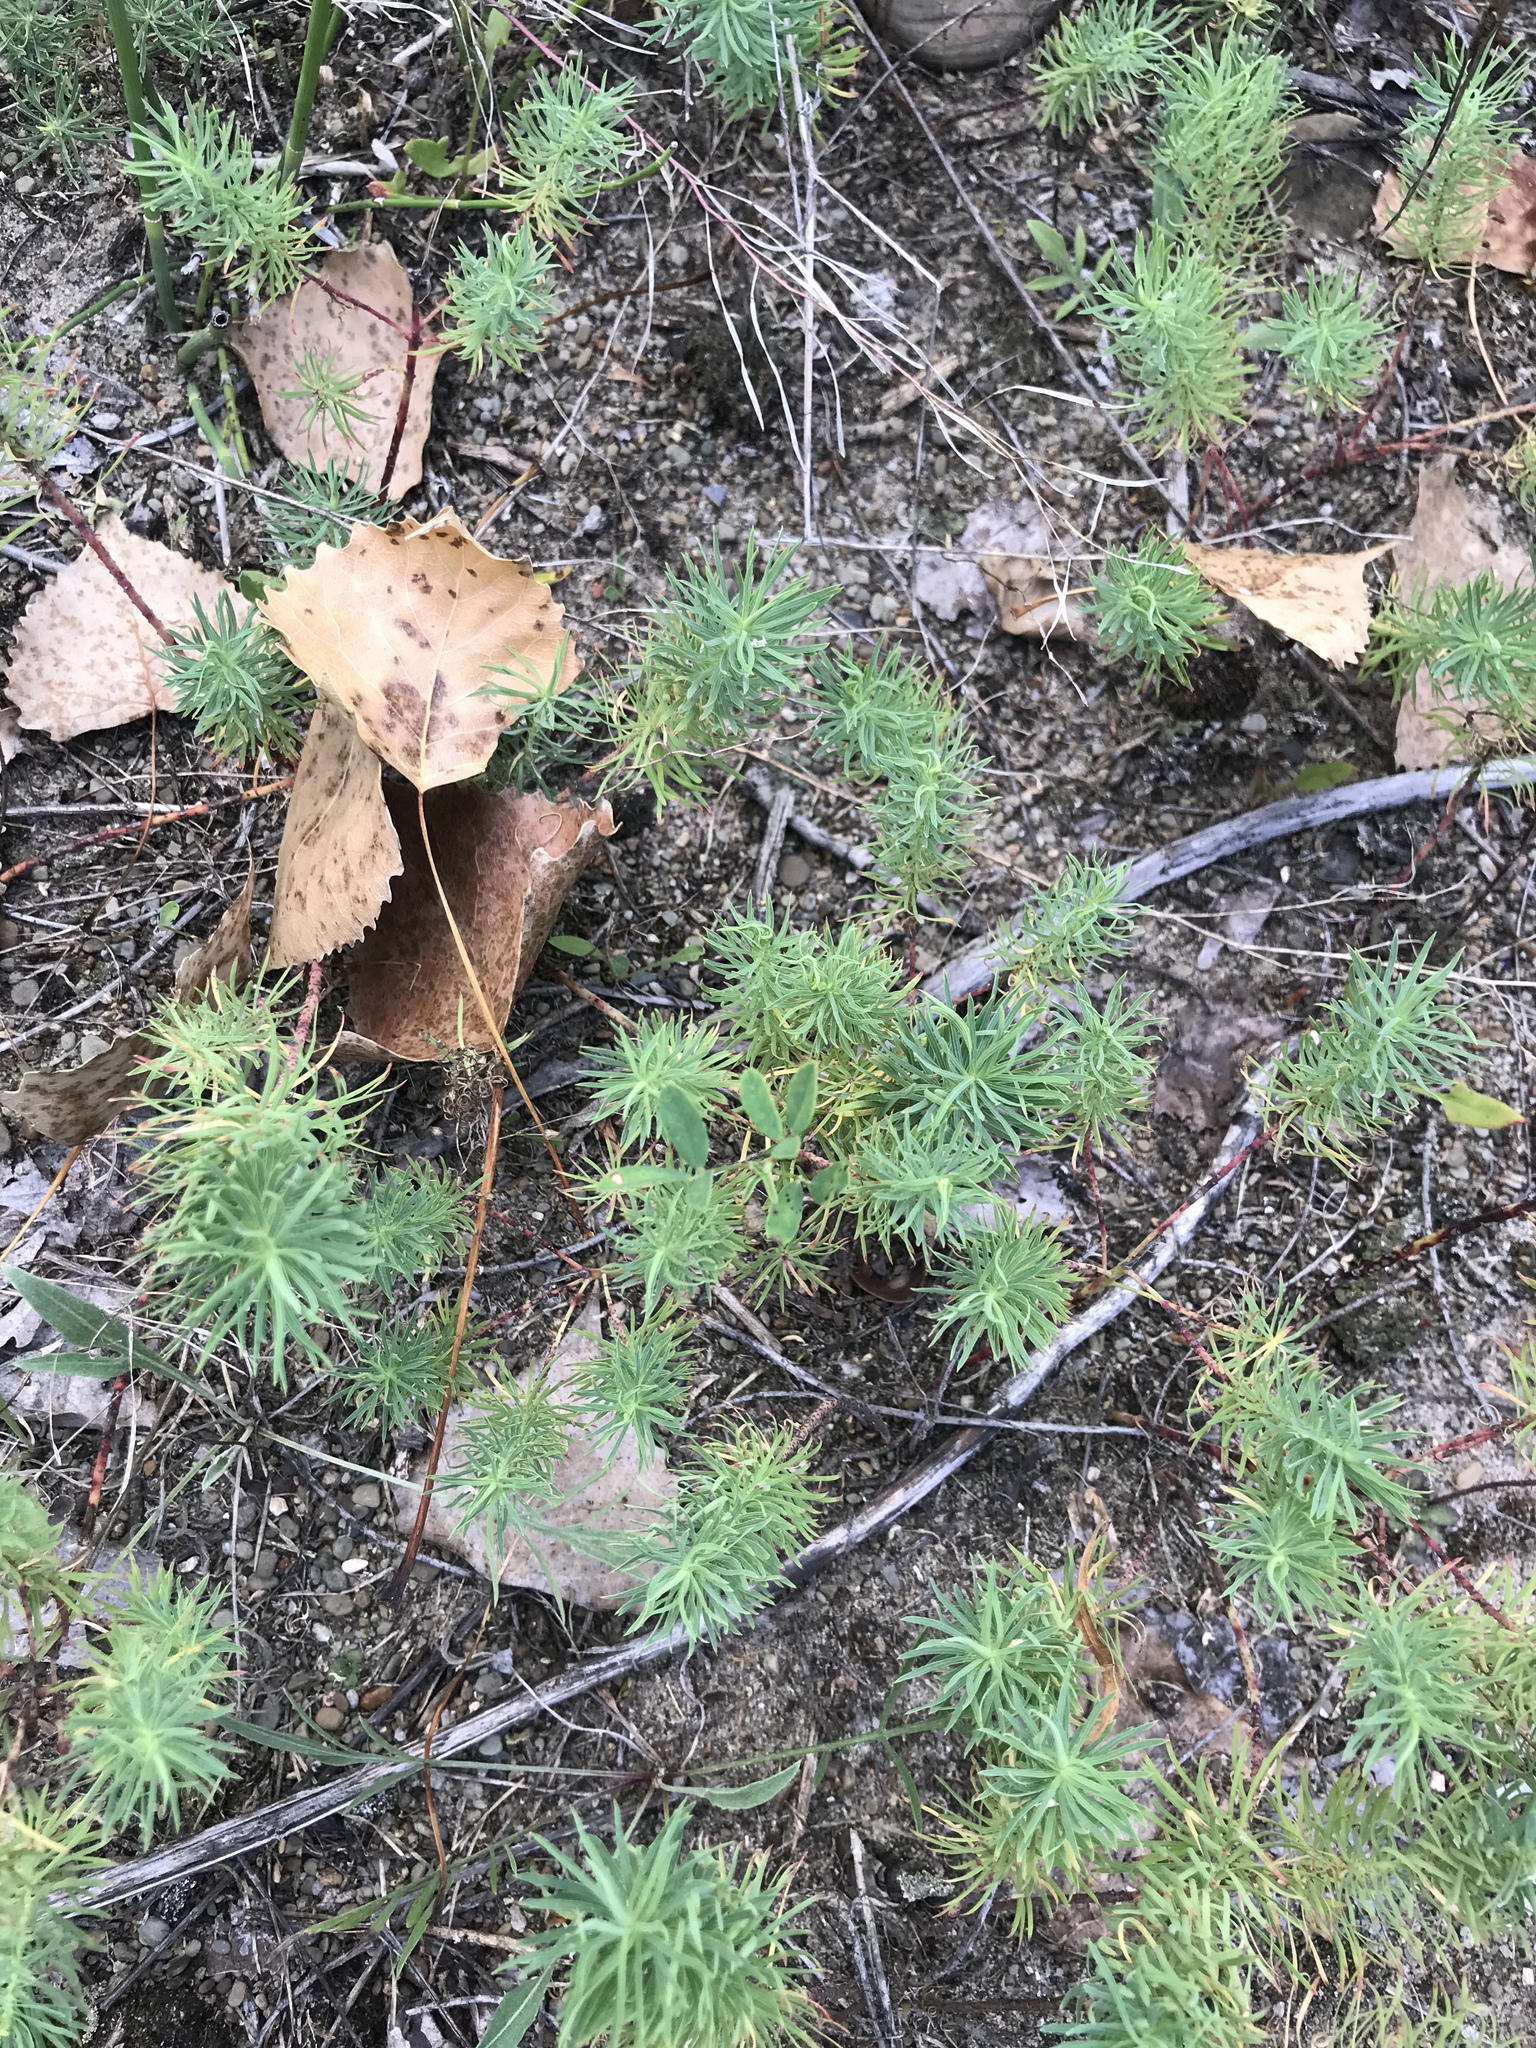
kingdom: Plantae
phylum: Tracheophyta
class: Magnoliopsida
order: Malpighiales
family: Euphorbiaceae
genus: Euphorbia
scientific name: Euphorbia cyparissias
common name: Cypress spurge
